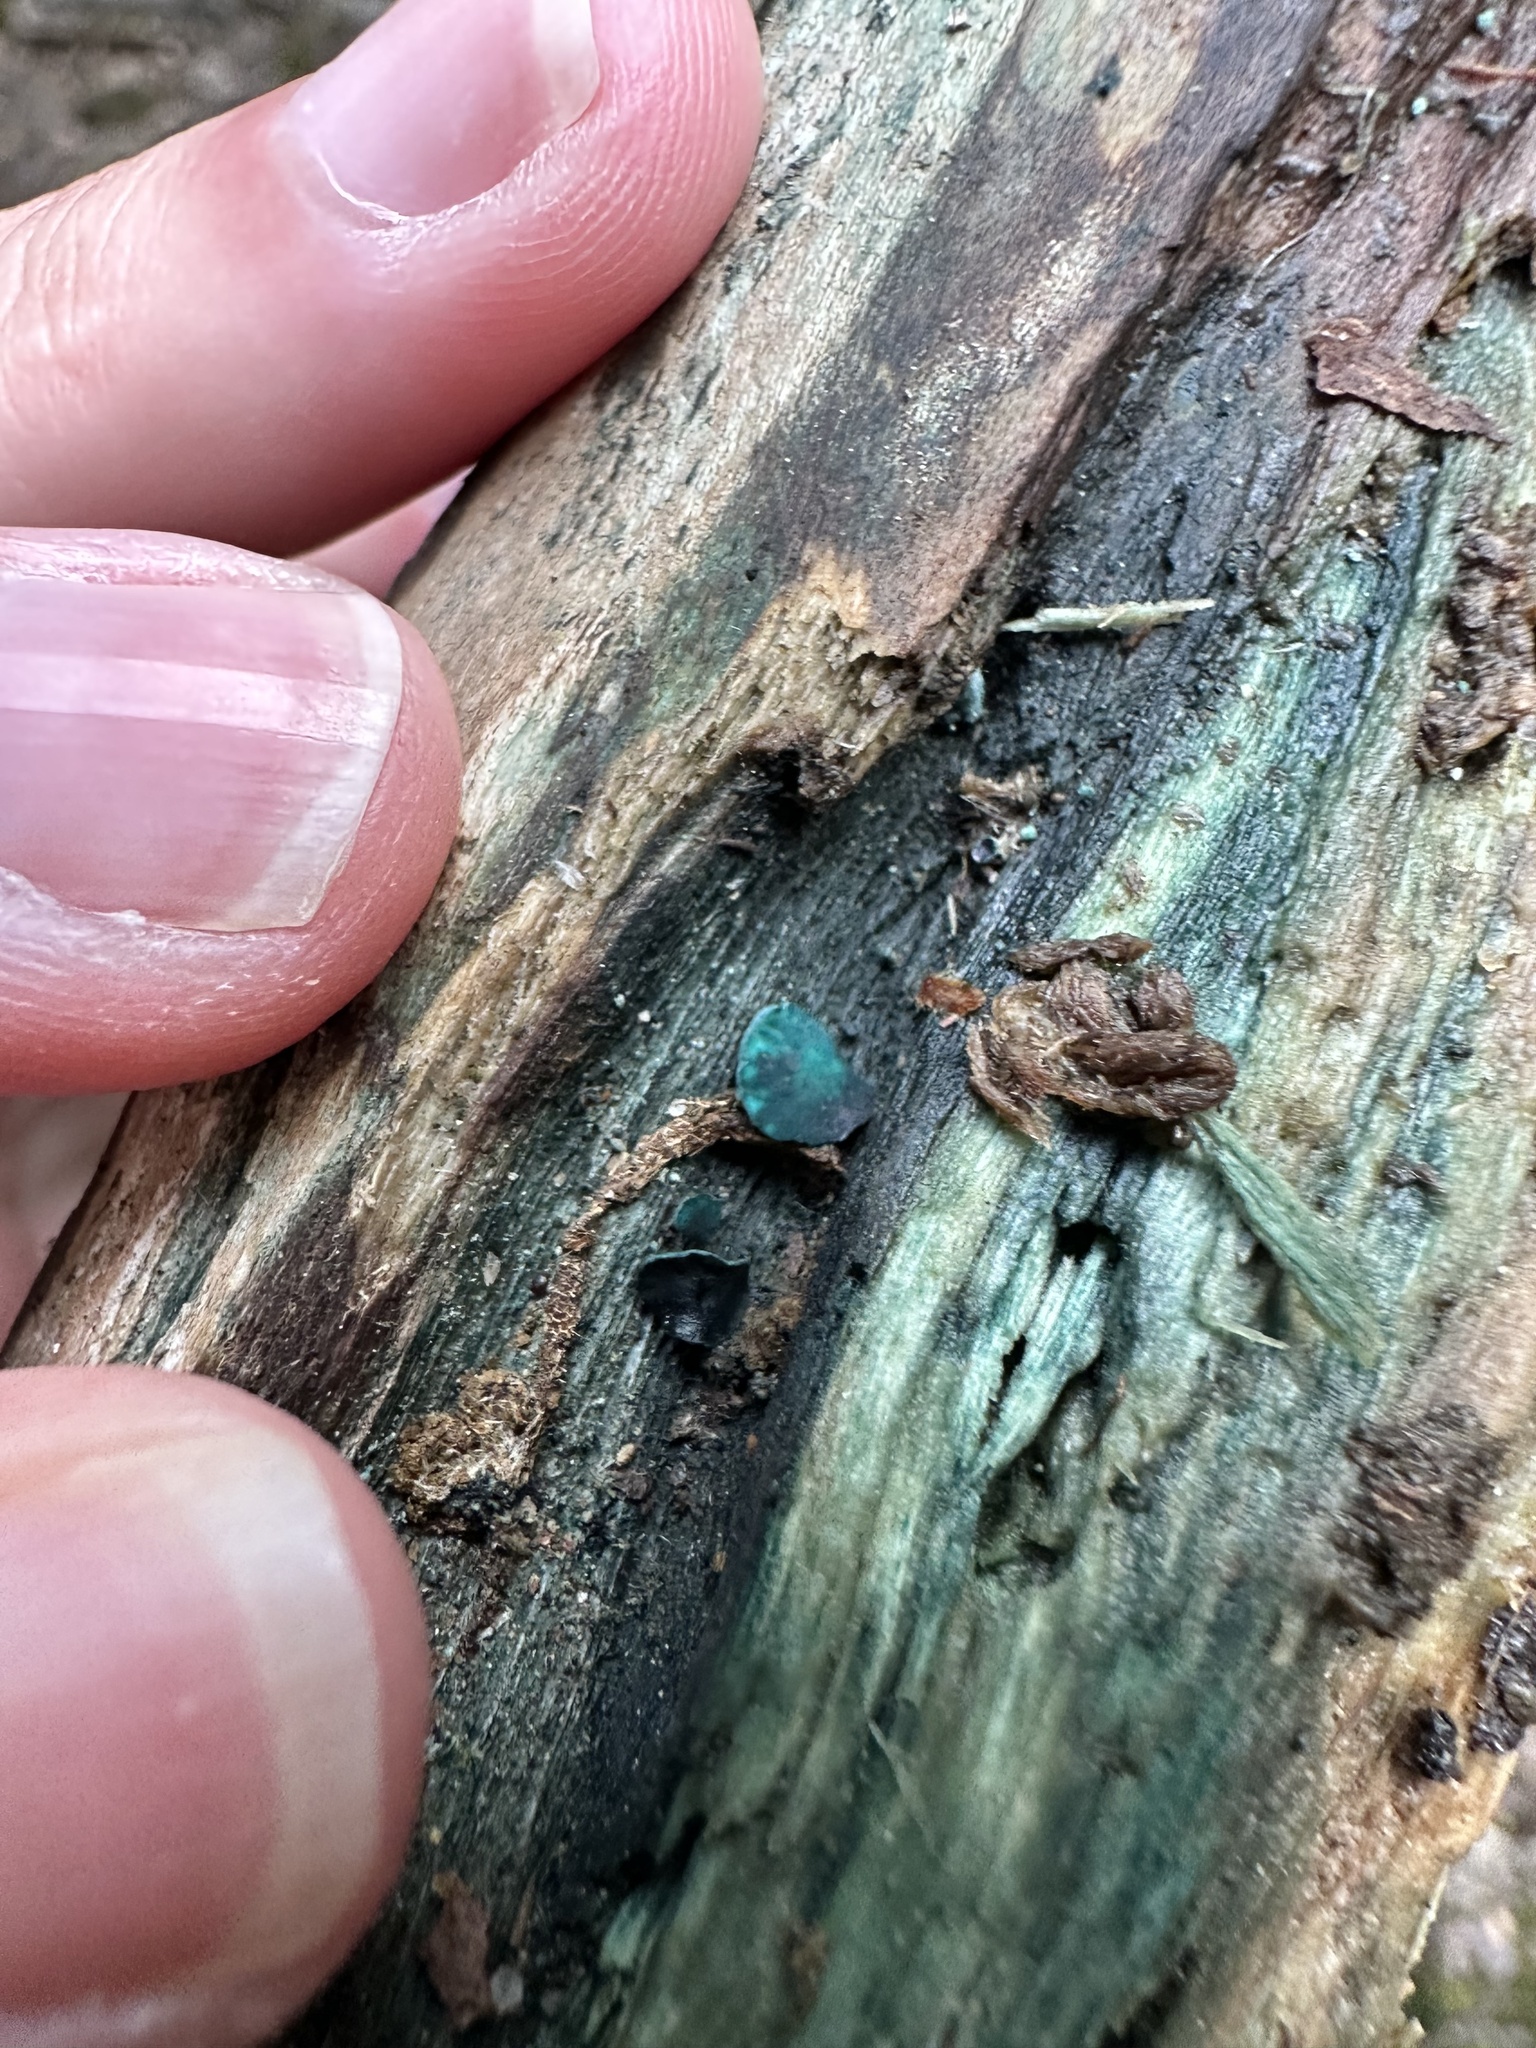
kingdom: Fungi
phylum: Ascomycota
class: Leotiomycetes
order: Helotiales
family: Chlorociboriaceae
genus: Chlorociboria
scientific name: Chlorociboria aeruginascens
